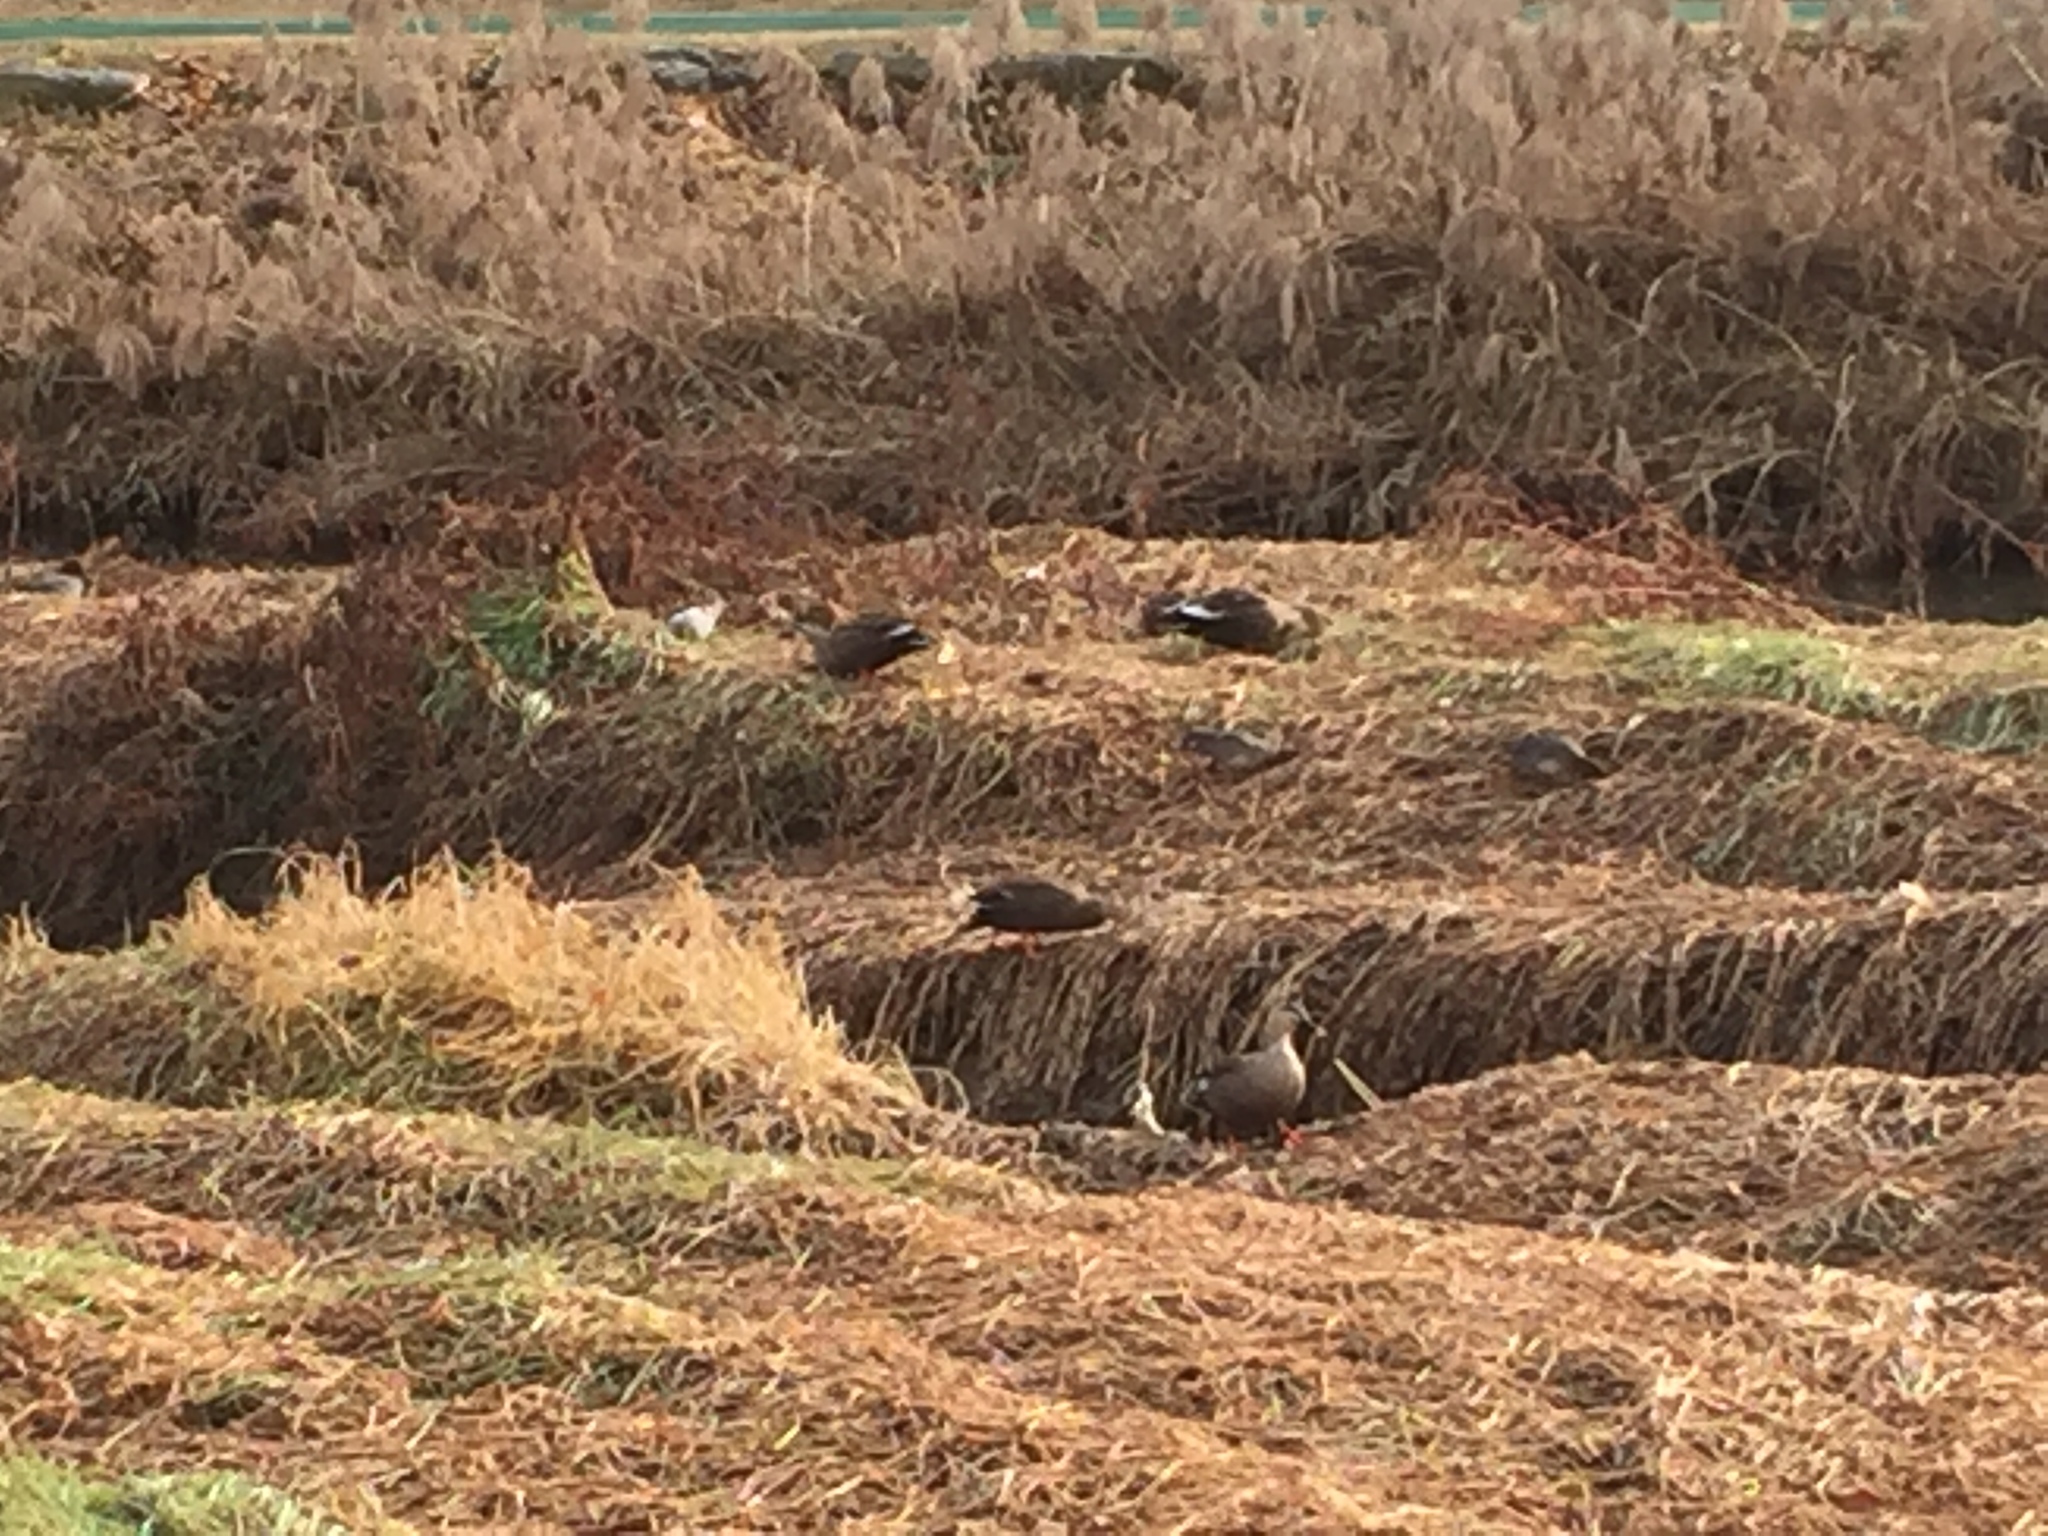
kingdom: Animalia
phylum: Chordata
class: Aves
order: Anseriformes
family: Anatidae
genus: Anas
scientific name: Anas zonorhyncha
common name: Eastern spot-billed duck
